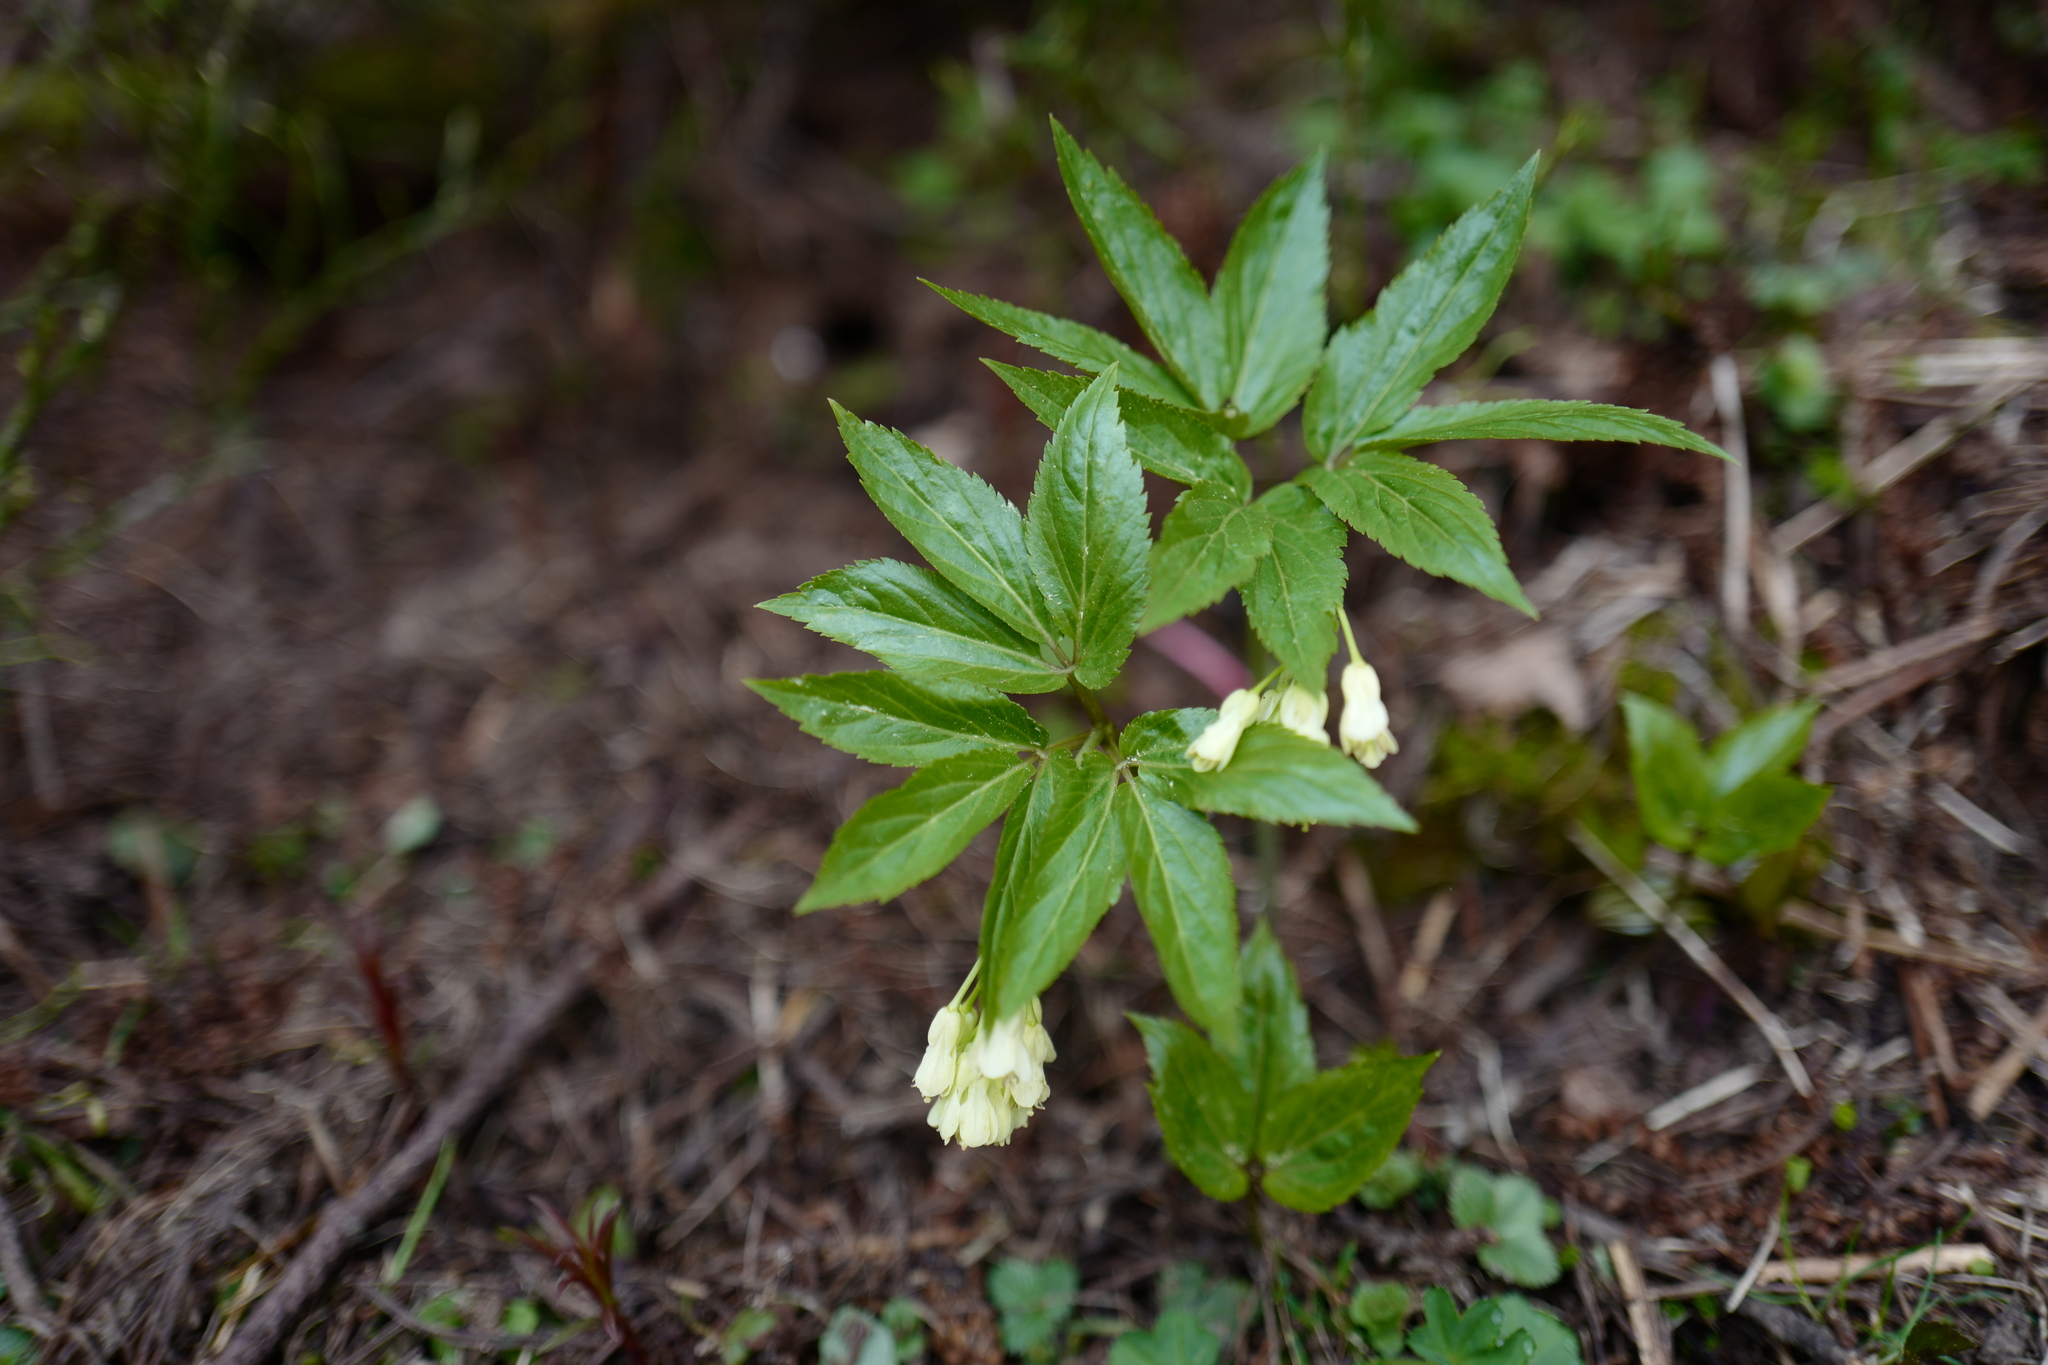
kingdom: Plantae
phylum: Tracheophyta
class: Magnoliopsida
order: Brassicales
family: Brassicaceae
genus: Cardamine
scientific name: Cardamine enneaphyllos
